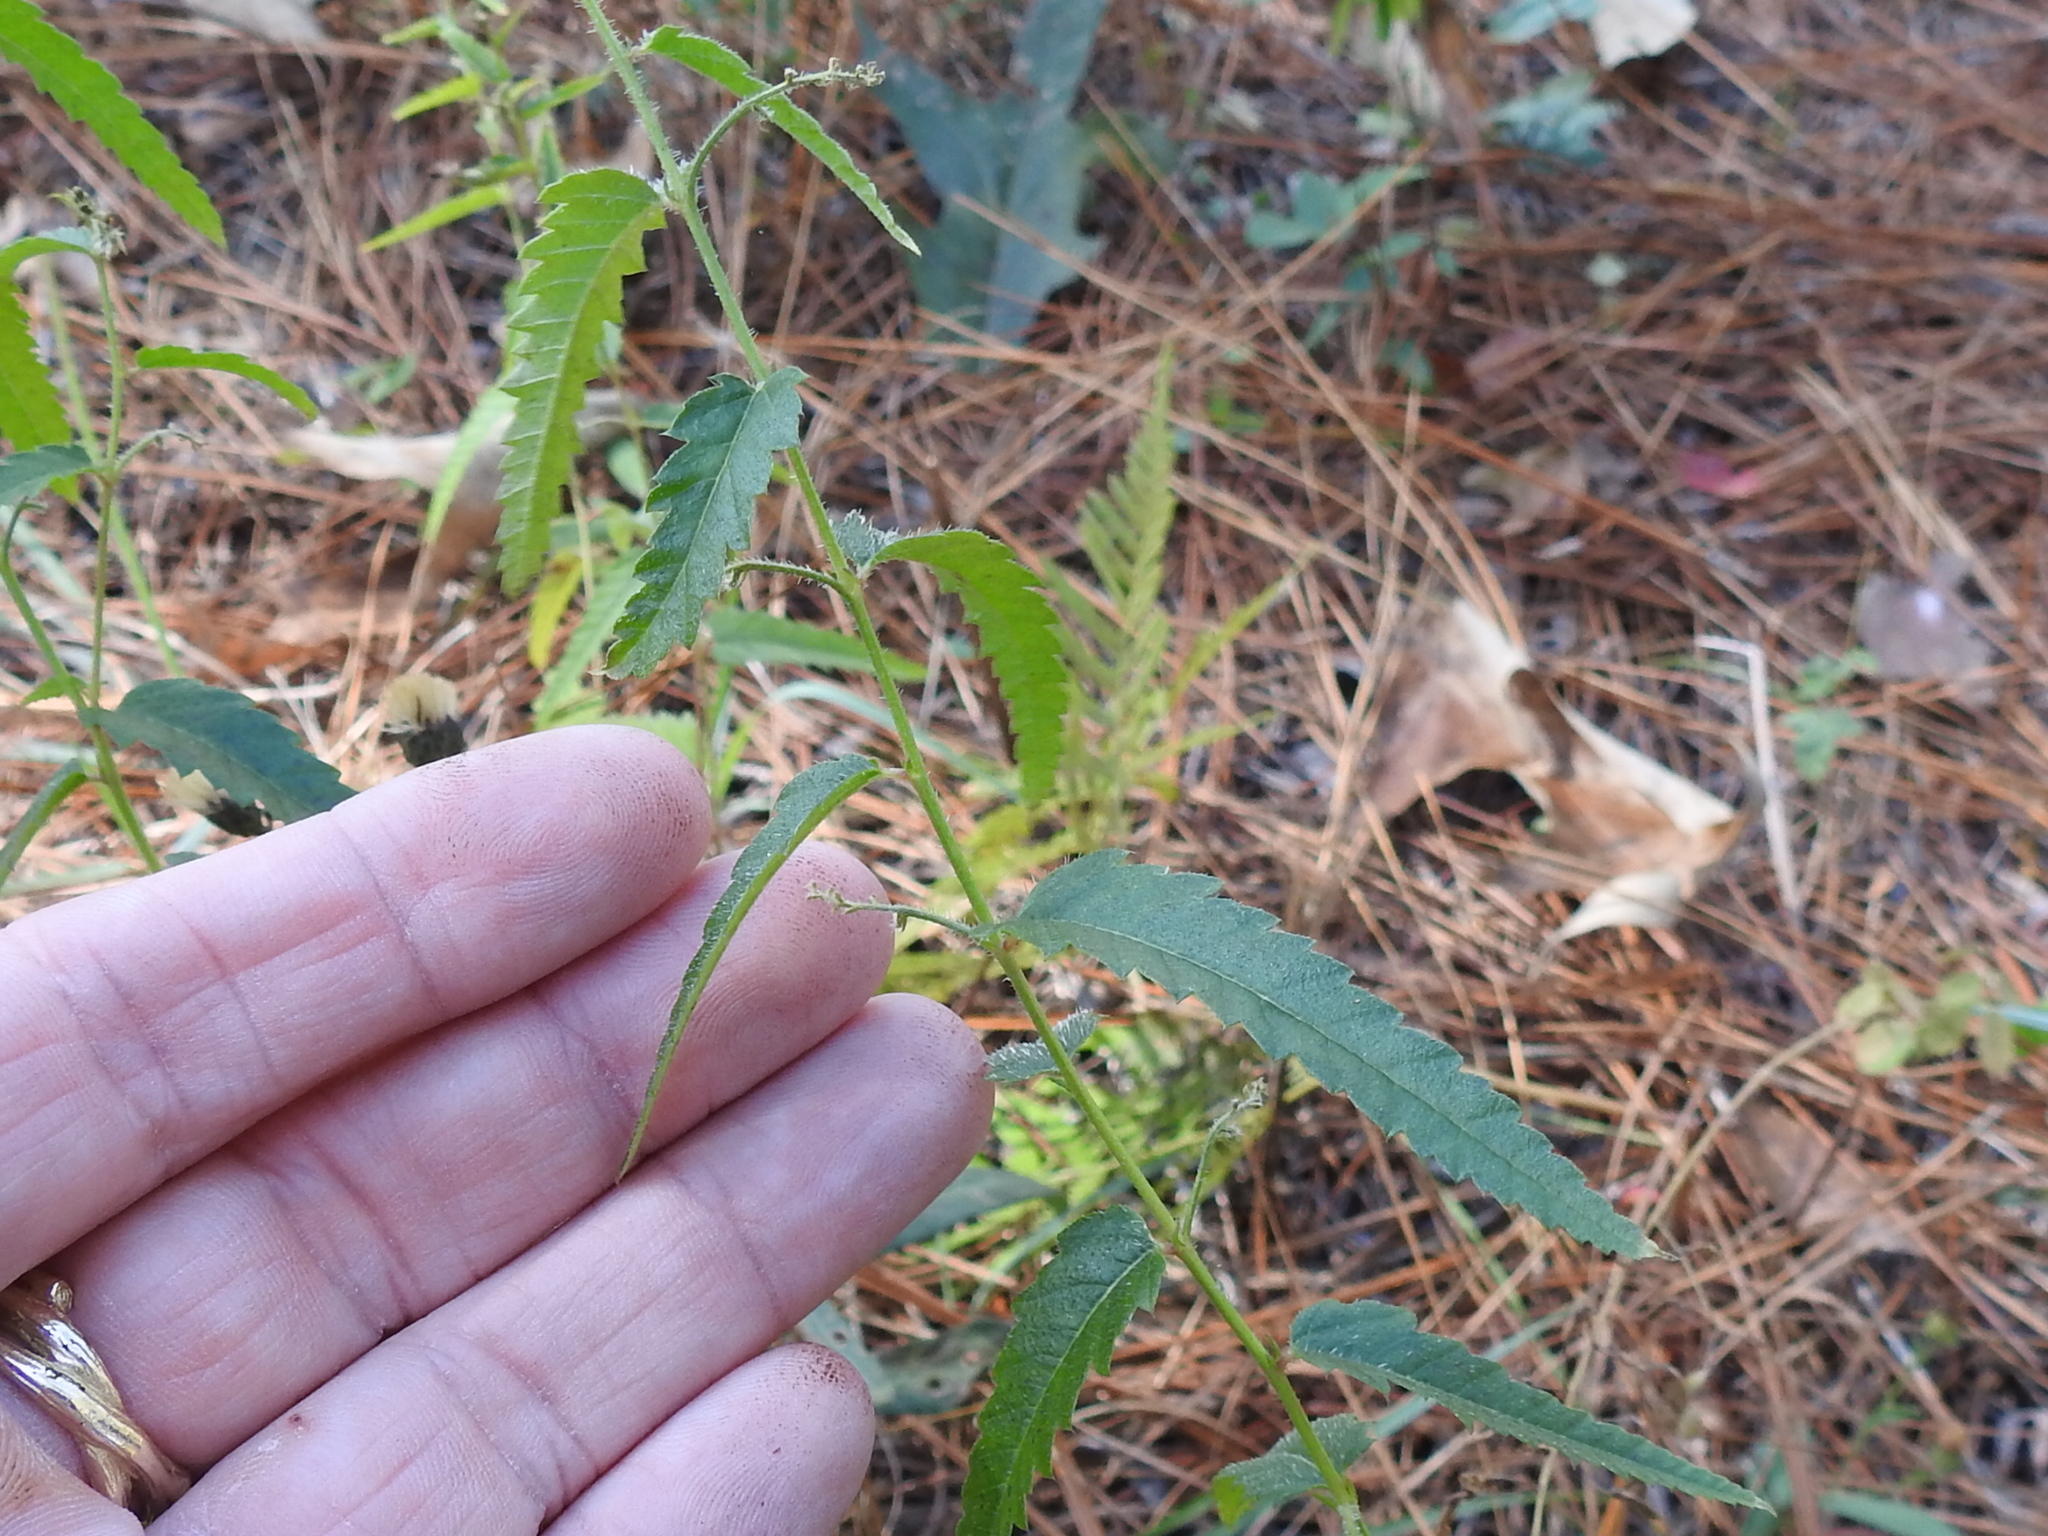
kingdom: Plantae
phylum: Tracheophyta
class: Magnoliopsida
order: Malpighiales
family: Euphorbiaceae
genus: Tragia
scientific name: Tragia urticifolia
